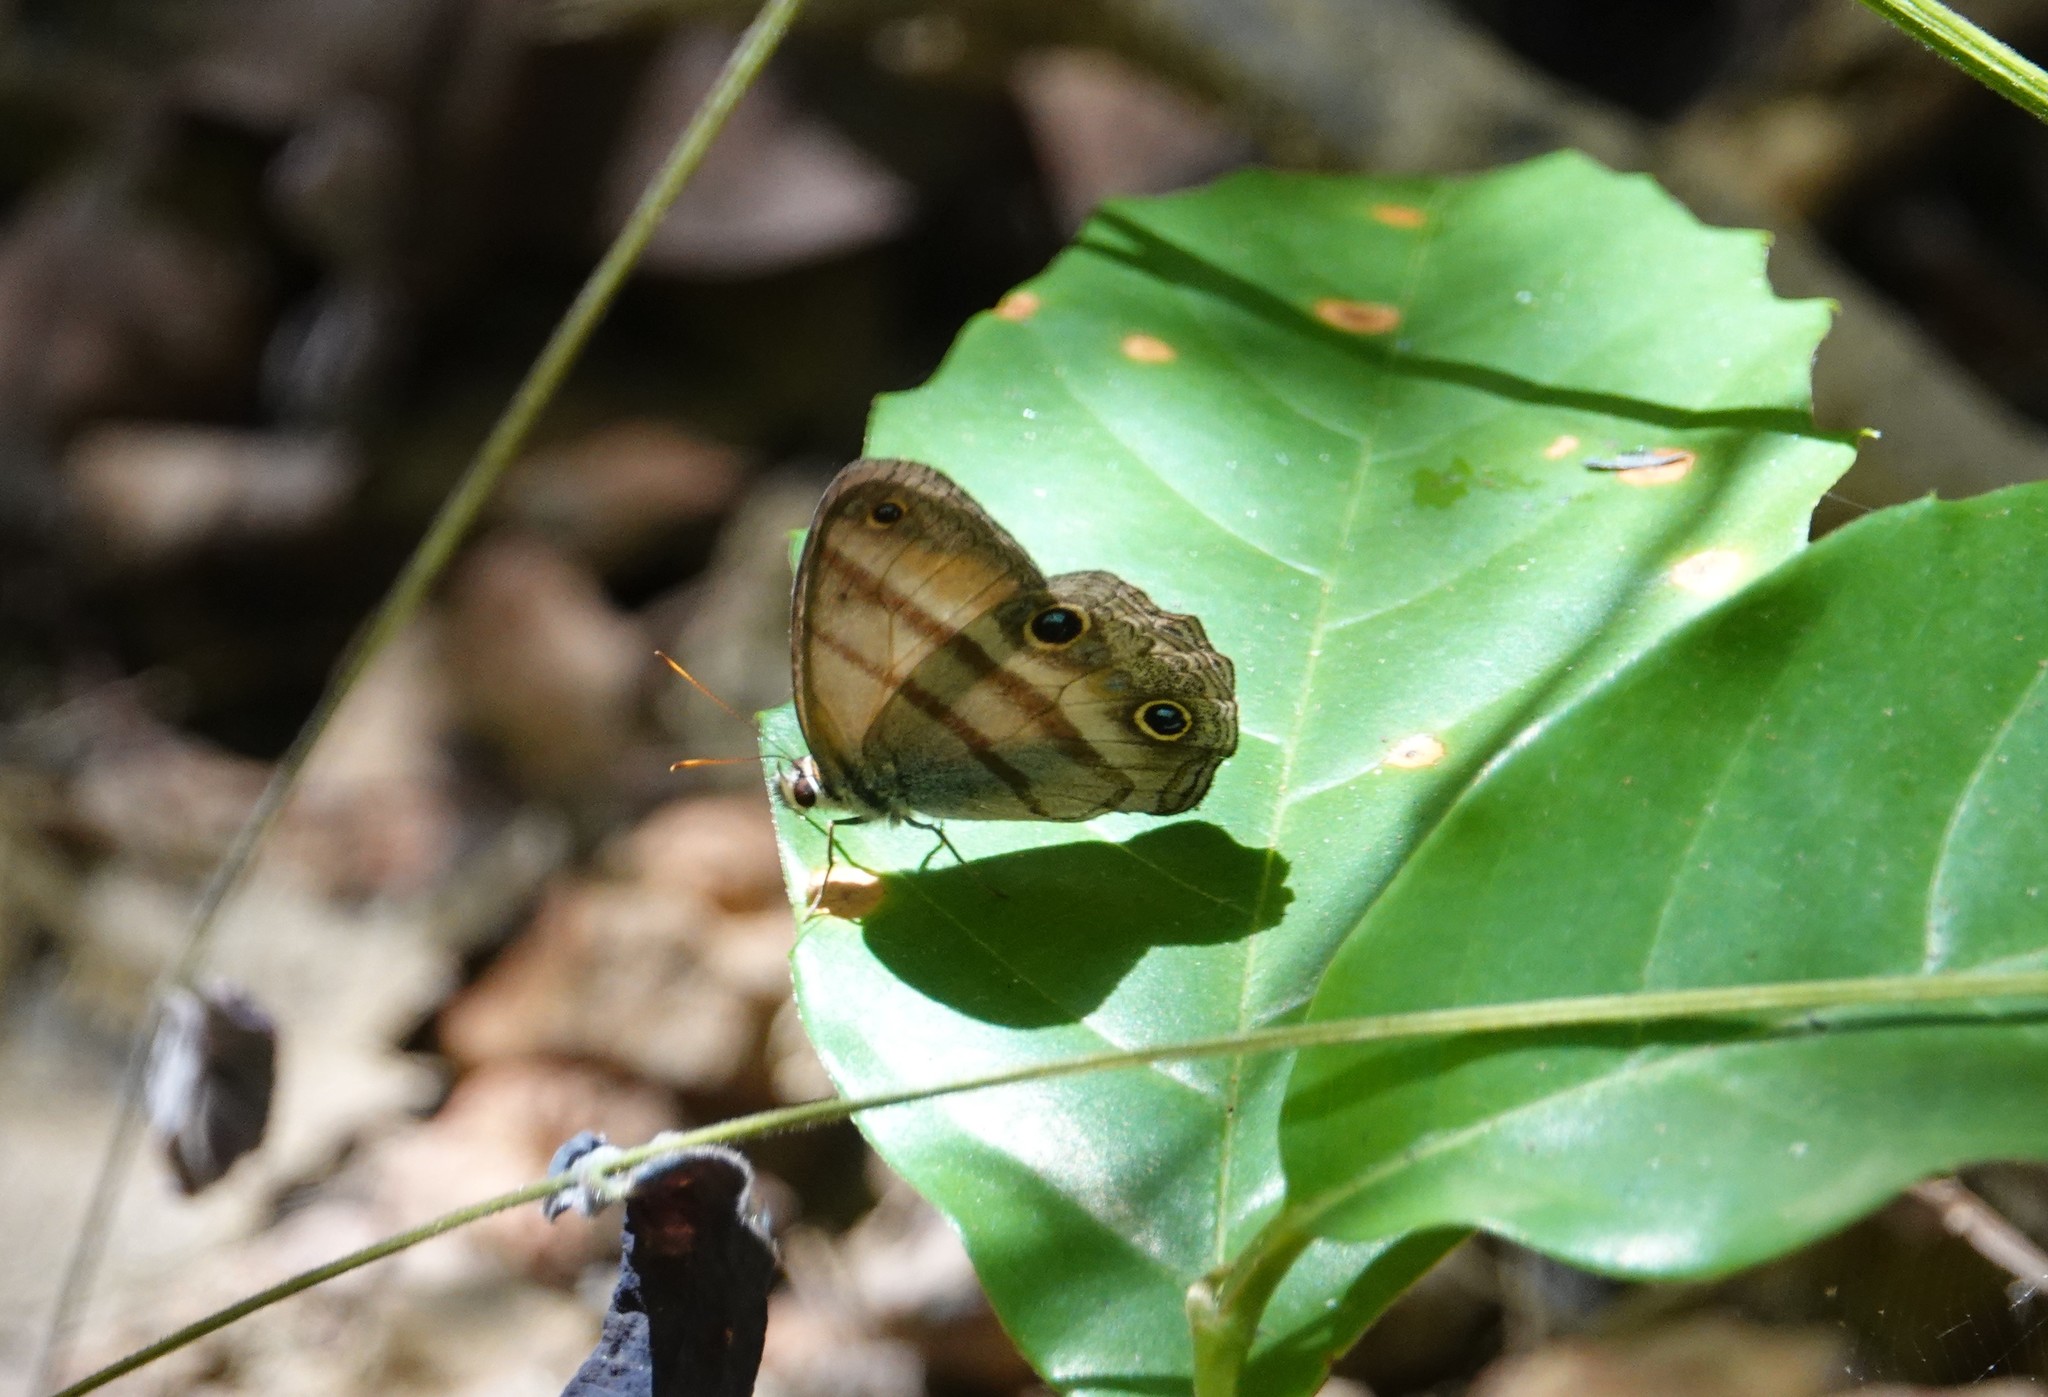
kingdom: Animalia
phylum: Arthropoda
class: Insecta
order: Lepidoptera
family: Nymphalidae
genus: Argyreuptychia
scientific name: Argyreuptychia penelope
